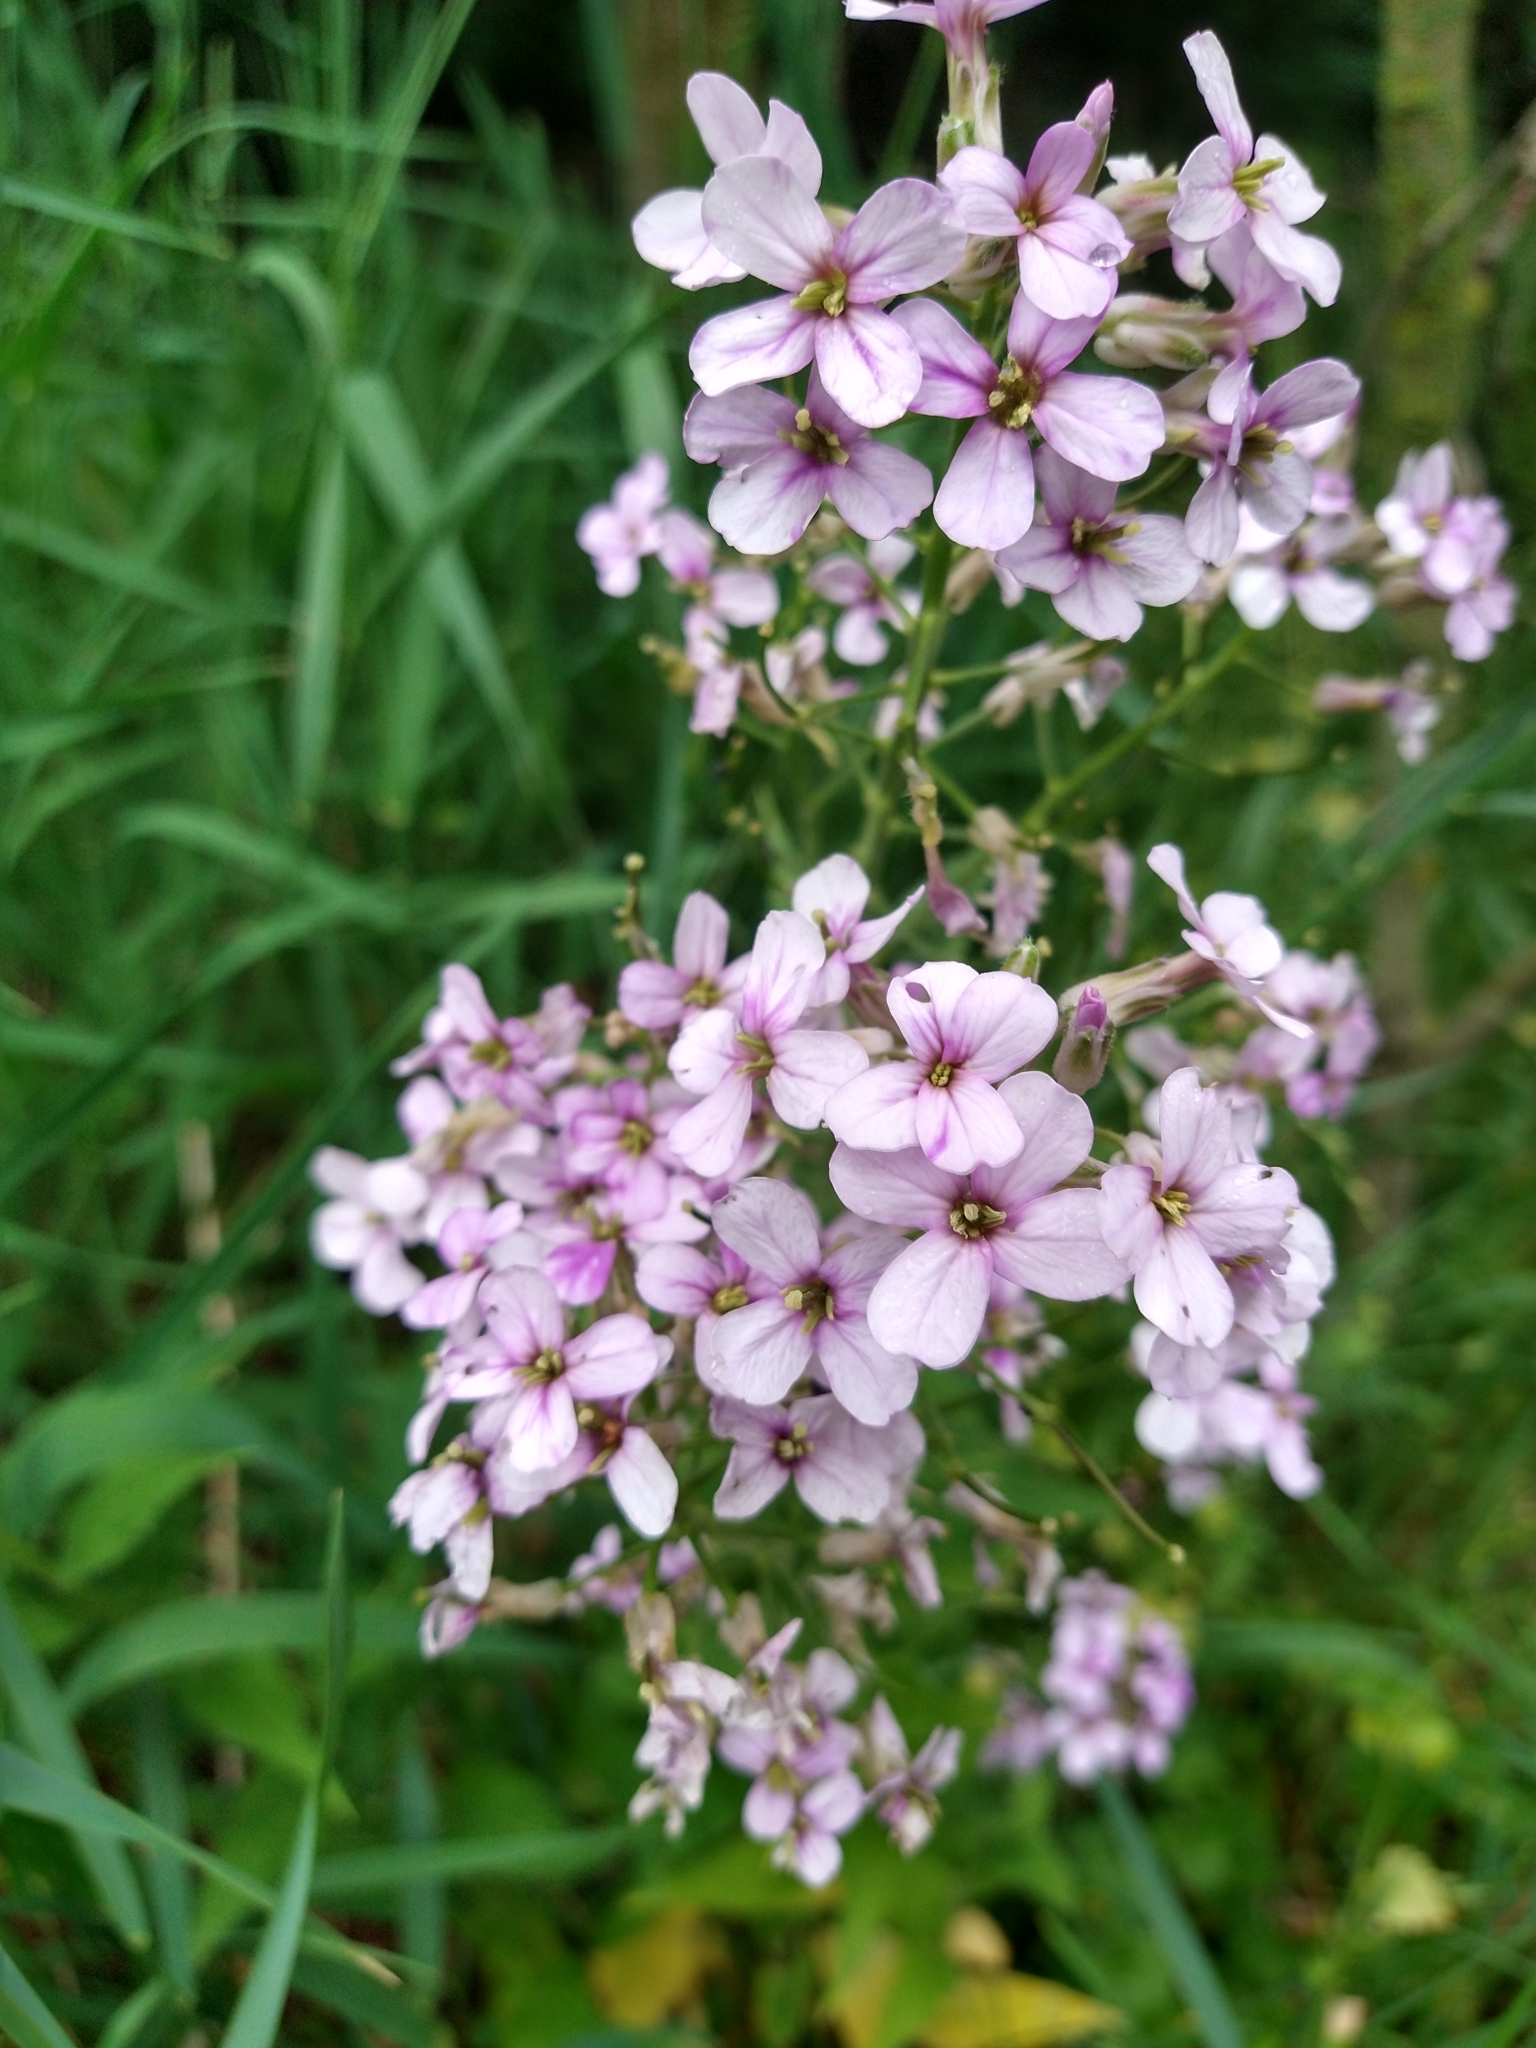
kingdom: Plantae
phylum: Tracheophyta
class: Magnoliopsida
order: Brassicales
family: Brassicaceae
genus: Hesperis
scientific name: Hesperis matronalis
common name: Dame's-violet
